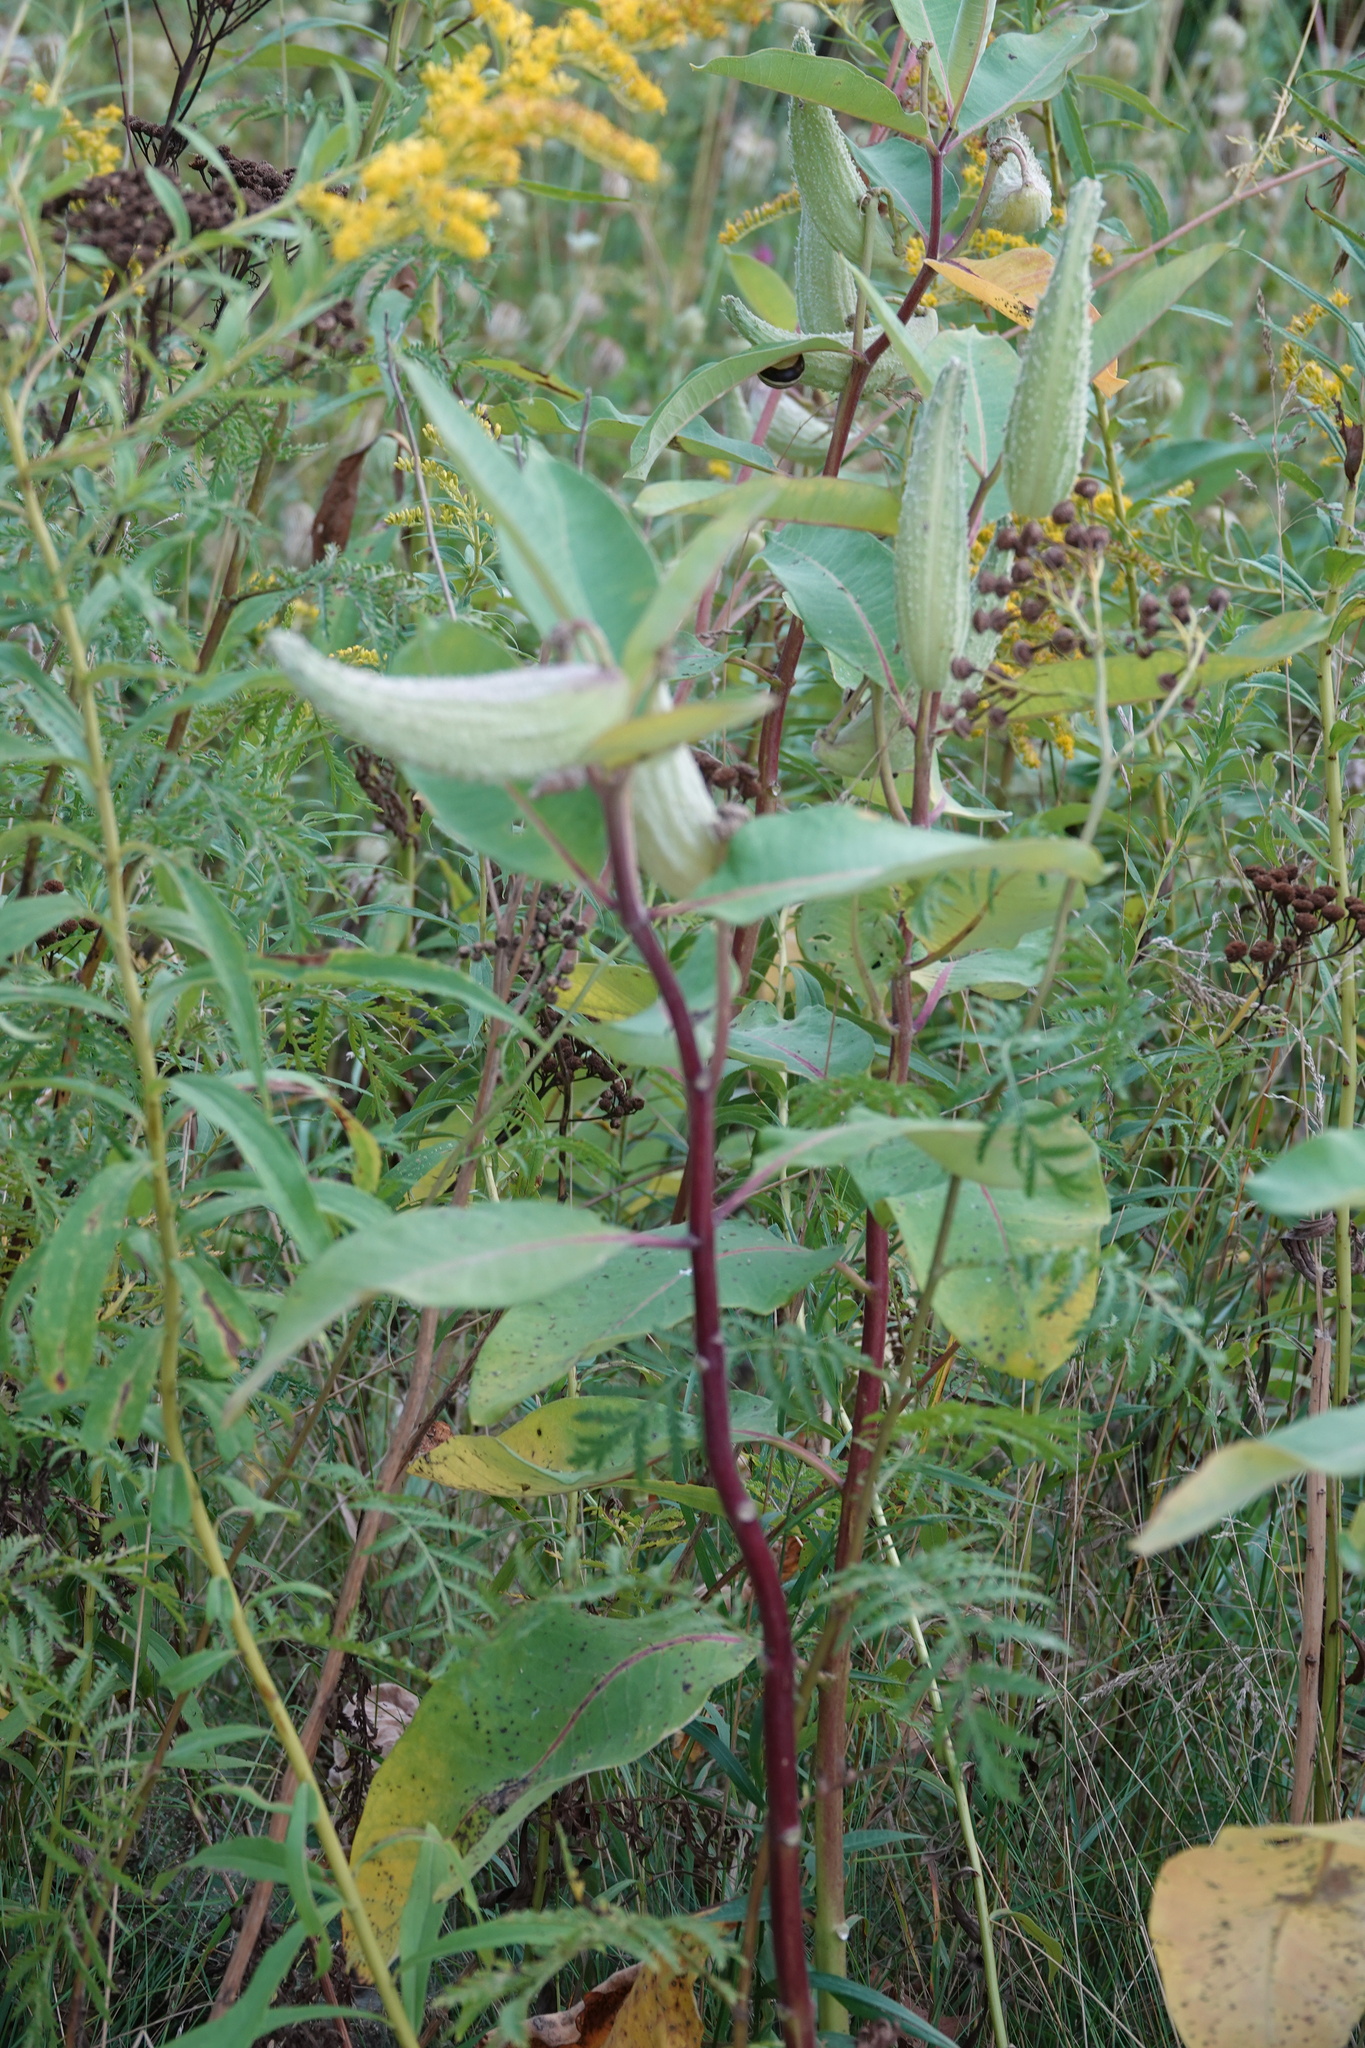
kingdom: Plantae
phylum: Tracheophyta
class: Magnoliopsida
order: Gentianales
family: Apocynaceae
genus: Asclepias
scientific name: Asclepias syriaca
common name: Common milkweed
